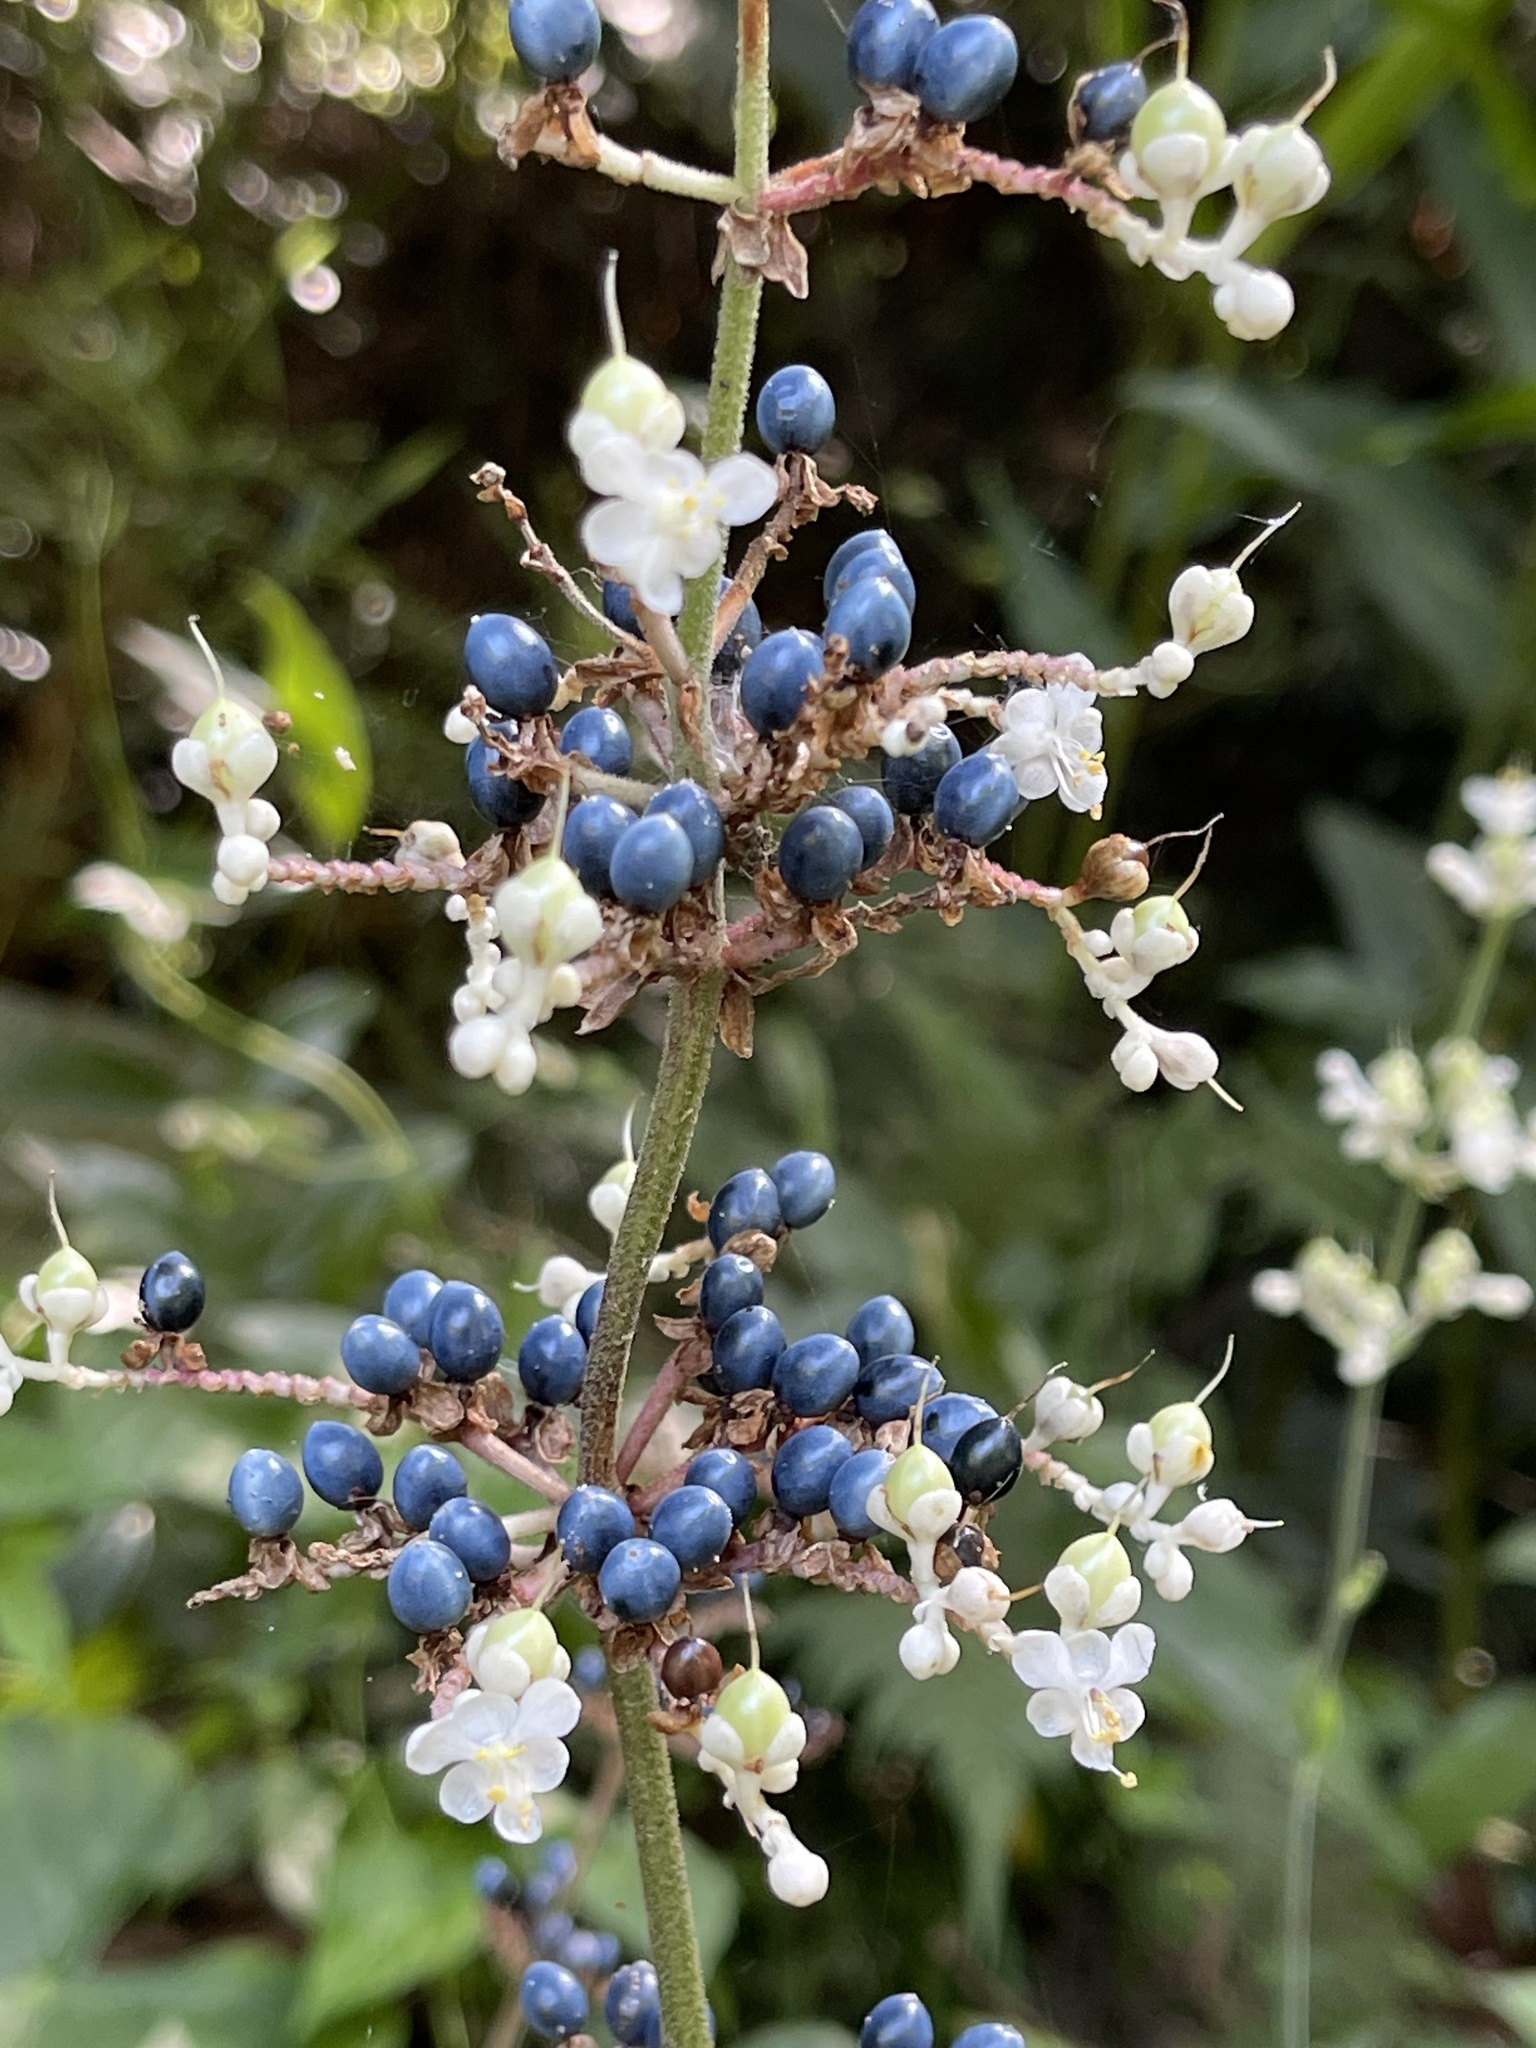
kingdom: Plantae
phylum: Tracheophyta
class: Liliopsida
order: Commelinales
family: Commelinaceae
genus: Pollia
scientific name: Pollia japonica
